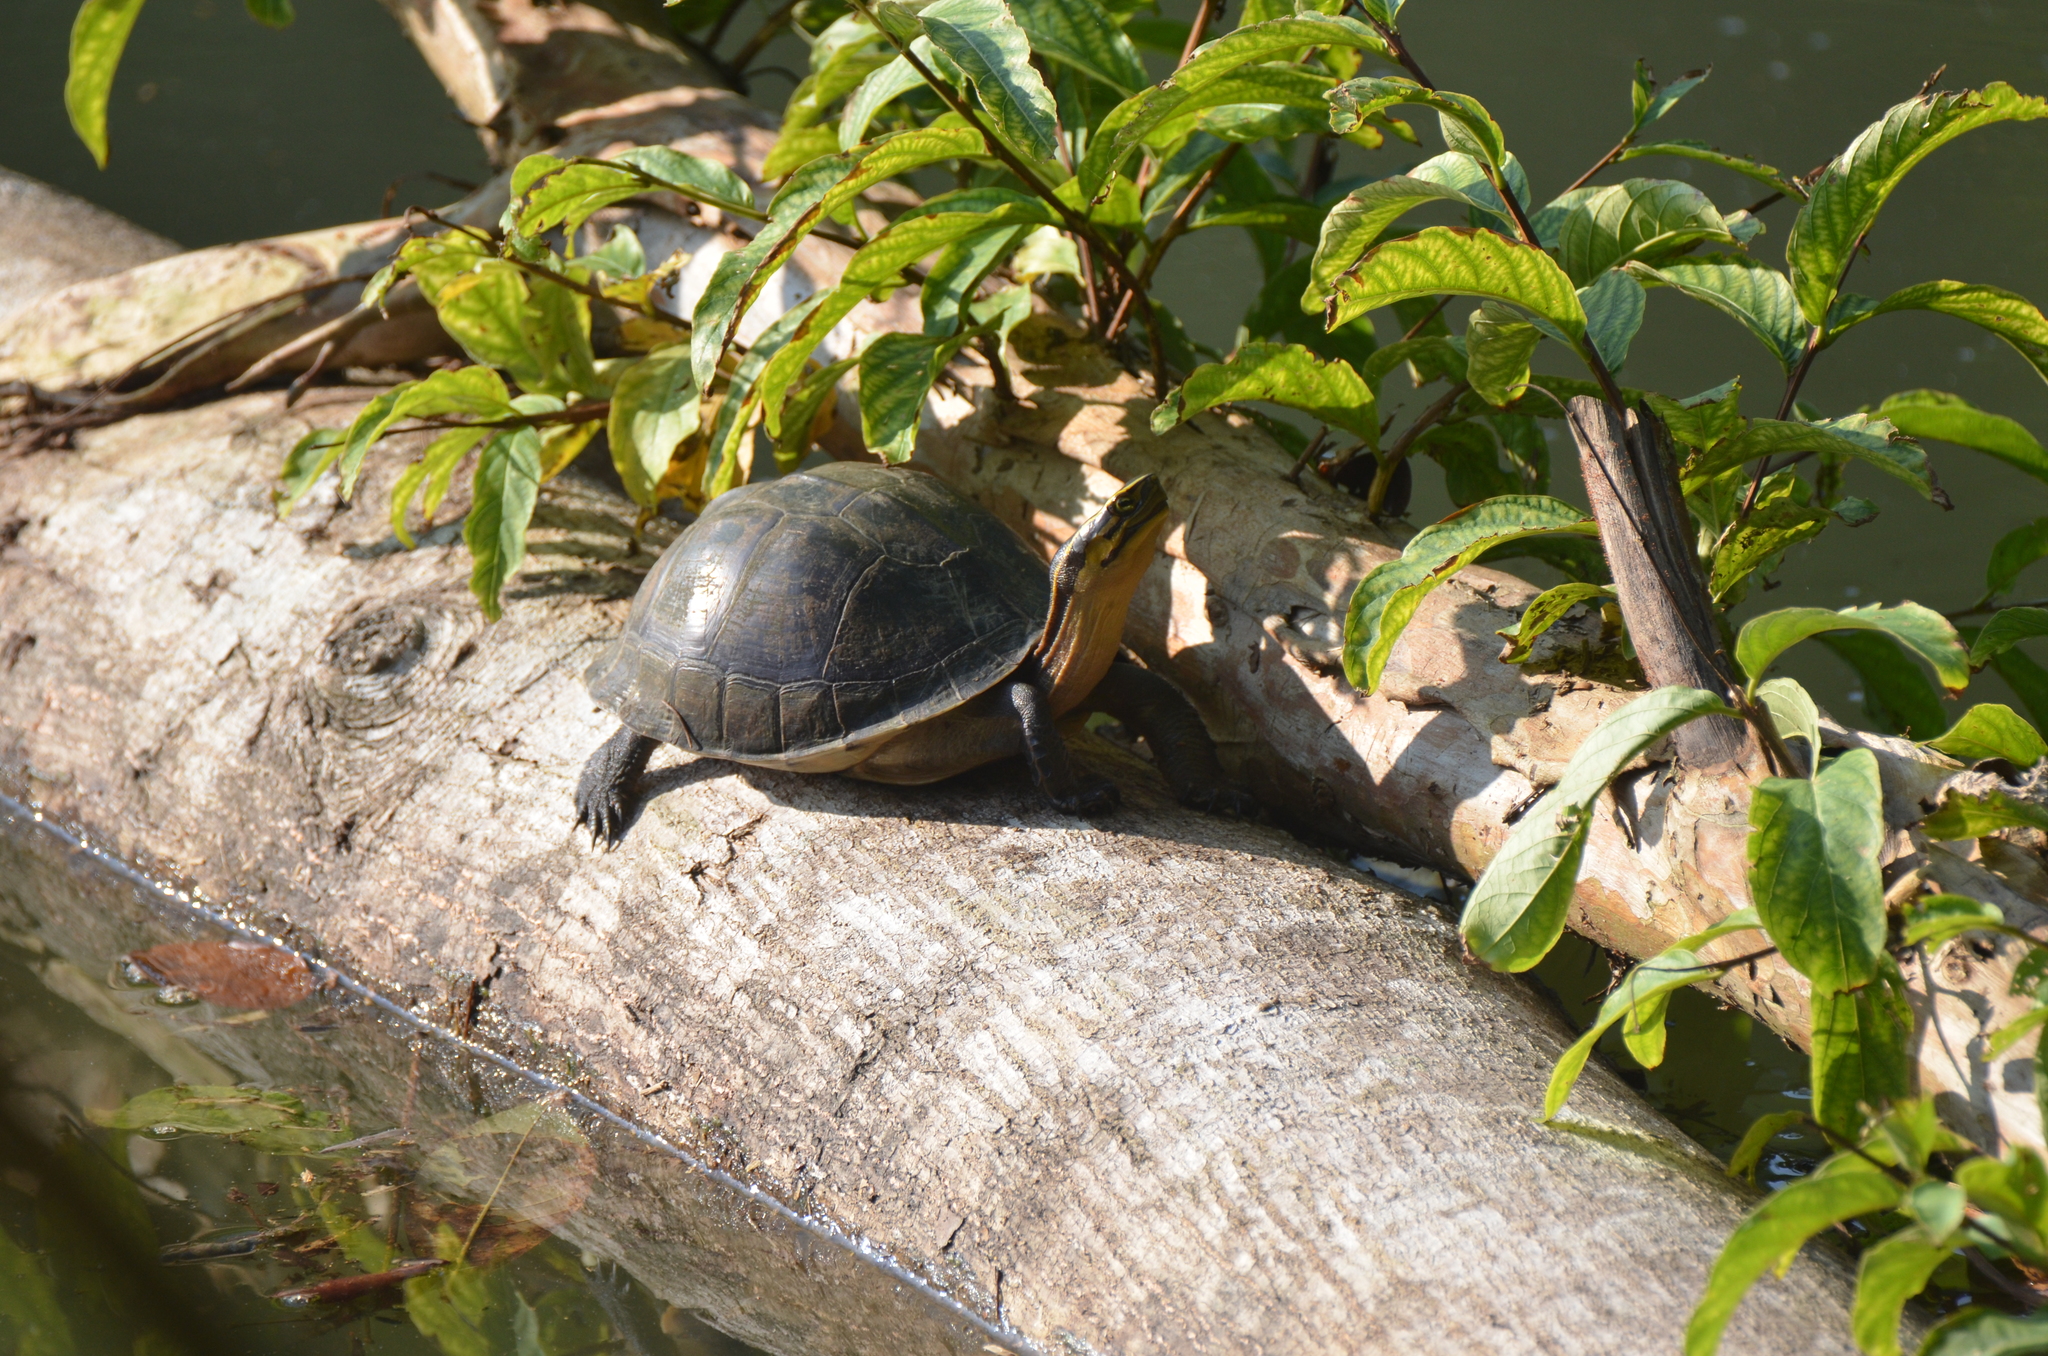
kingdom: Animalia
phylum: Chordata
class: Testudines
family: Geoemydidae
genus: Cuora
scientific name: Cuora
